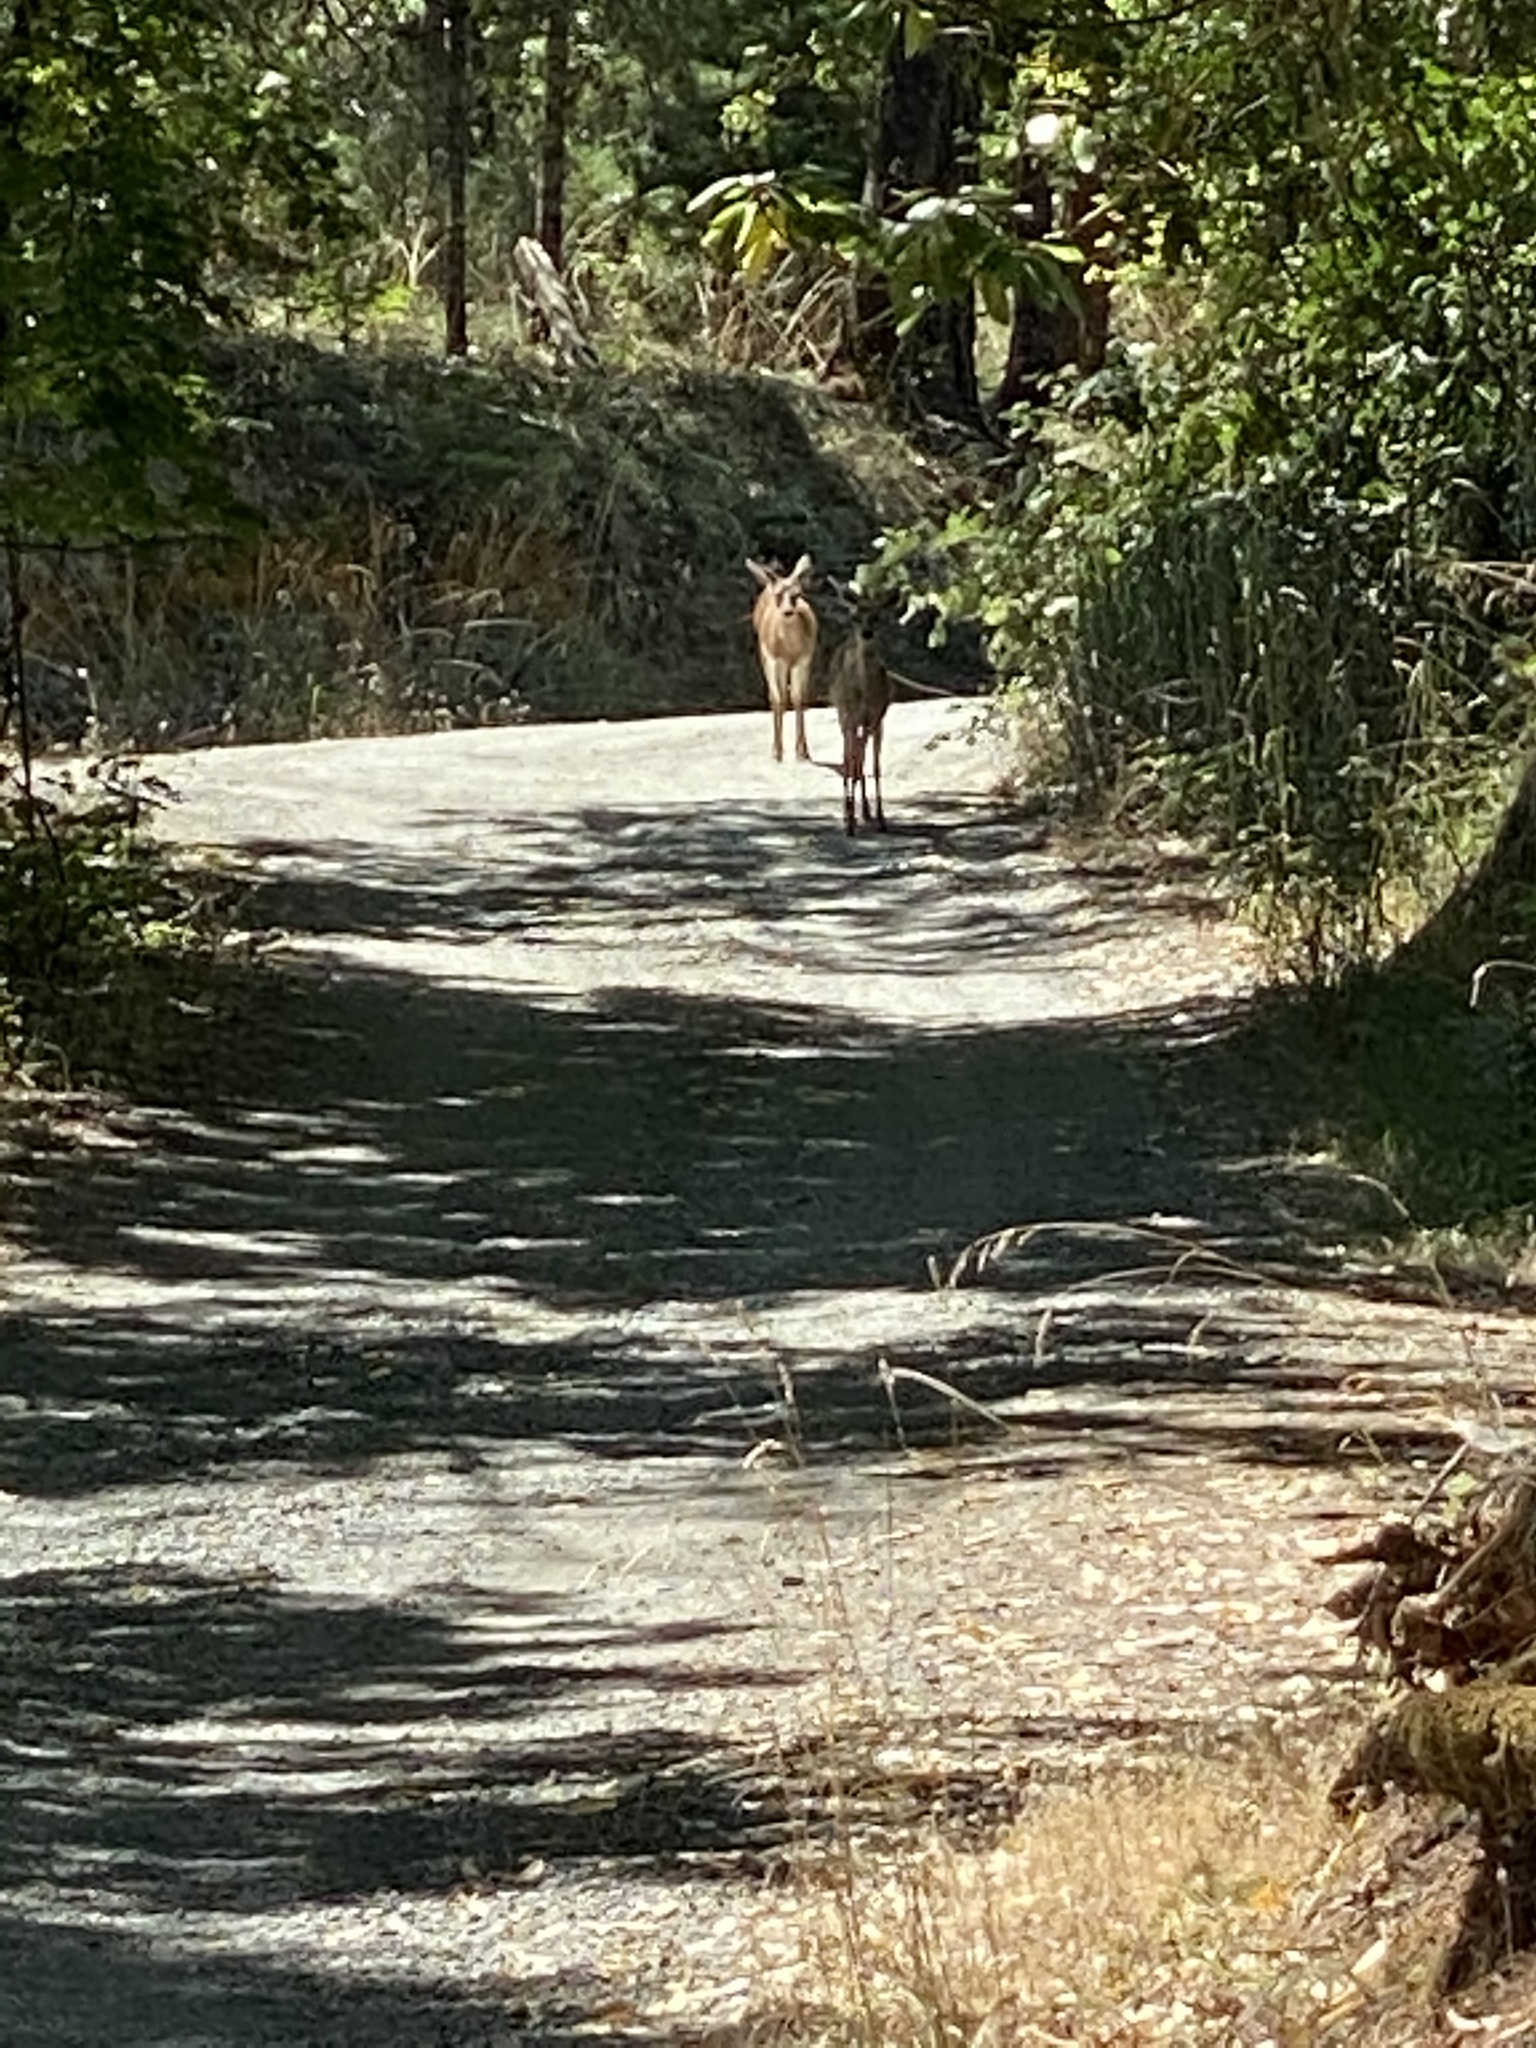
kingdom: Animalia
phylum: Chordata
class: Mammalia
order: Artiodactyla
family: Cervidae
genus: Odocoileus
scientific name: Odocoileus hemionus
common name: Mule deer
